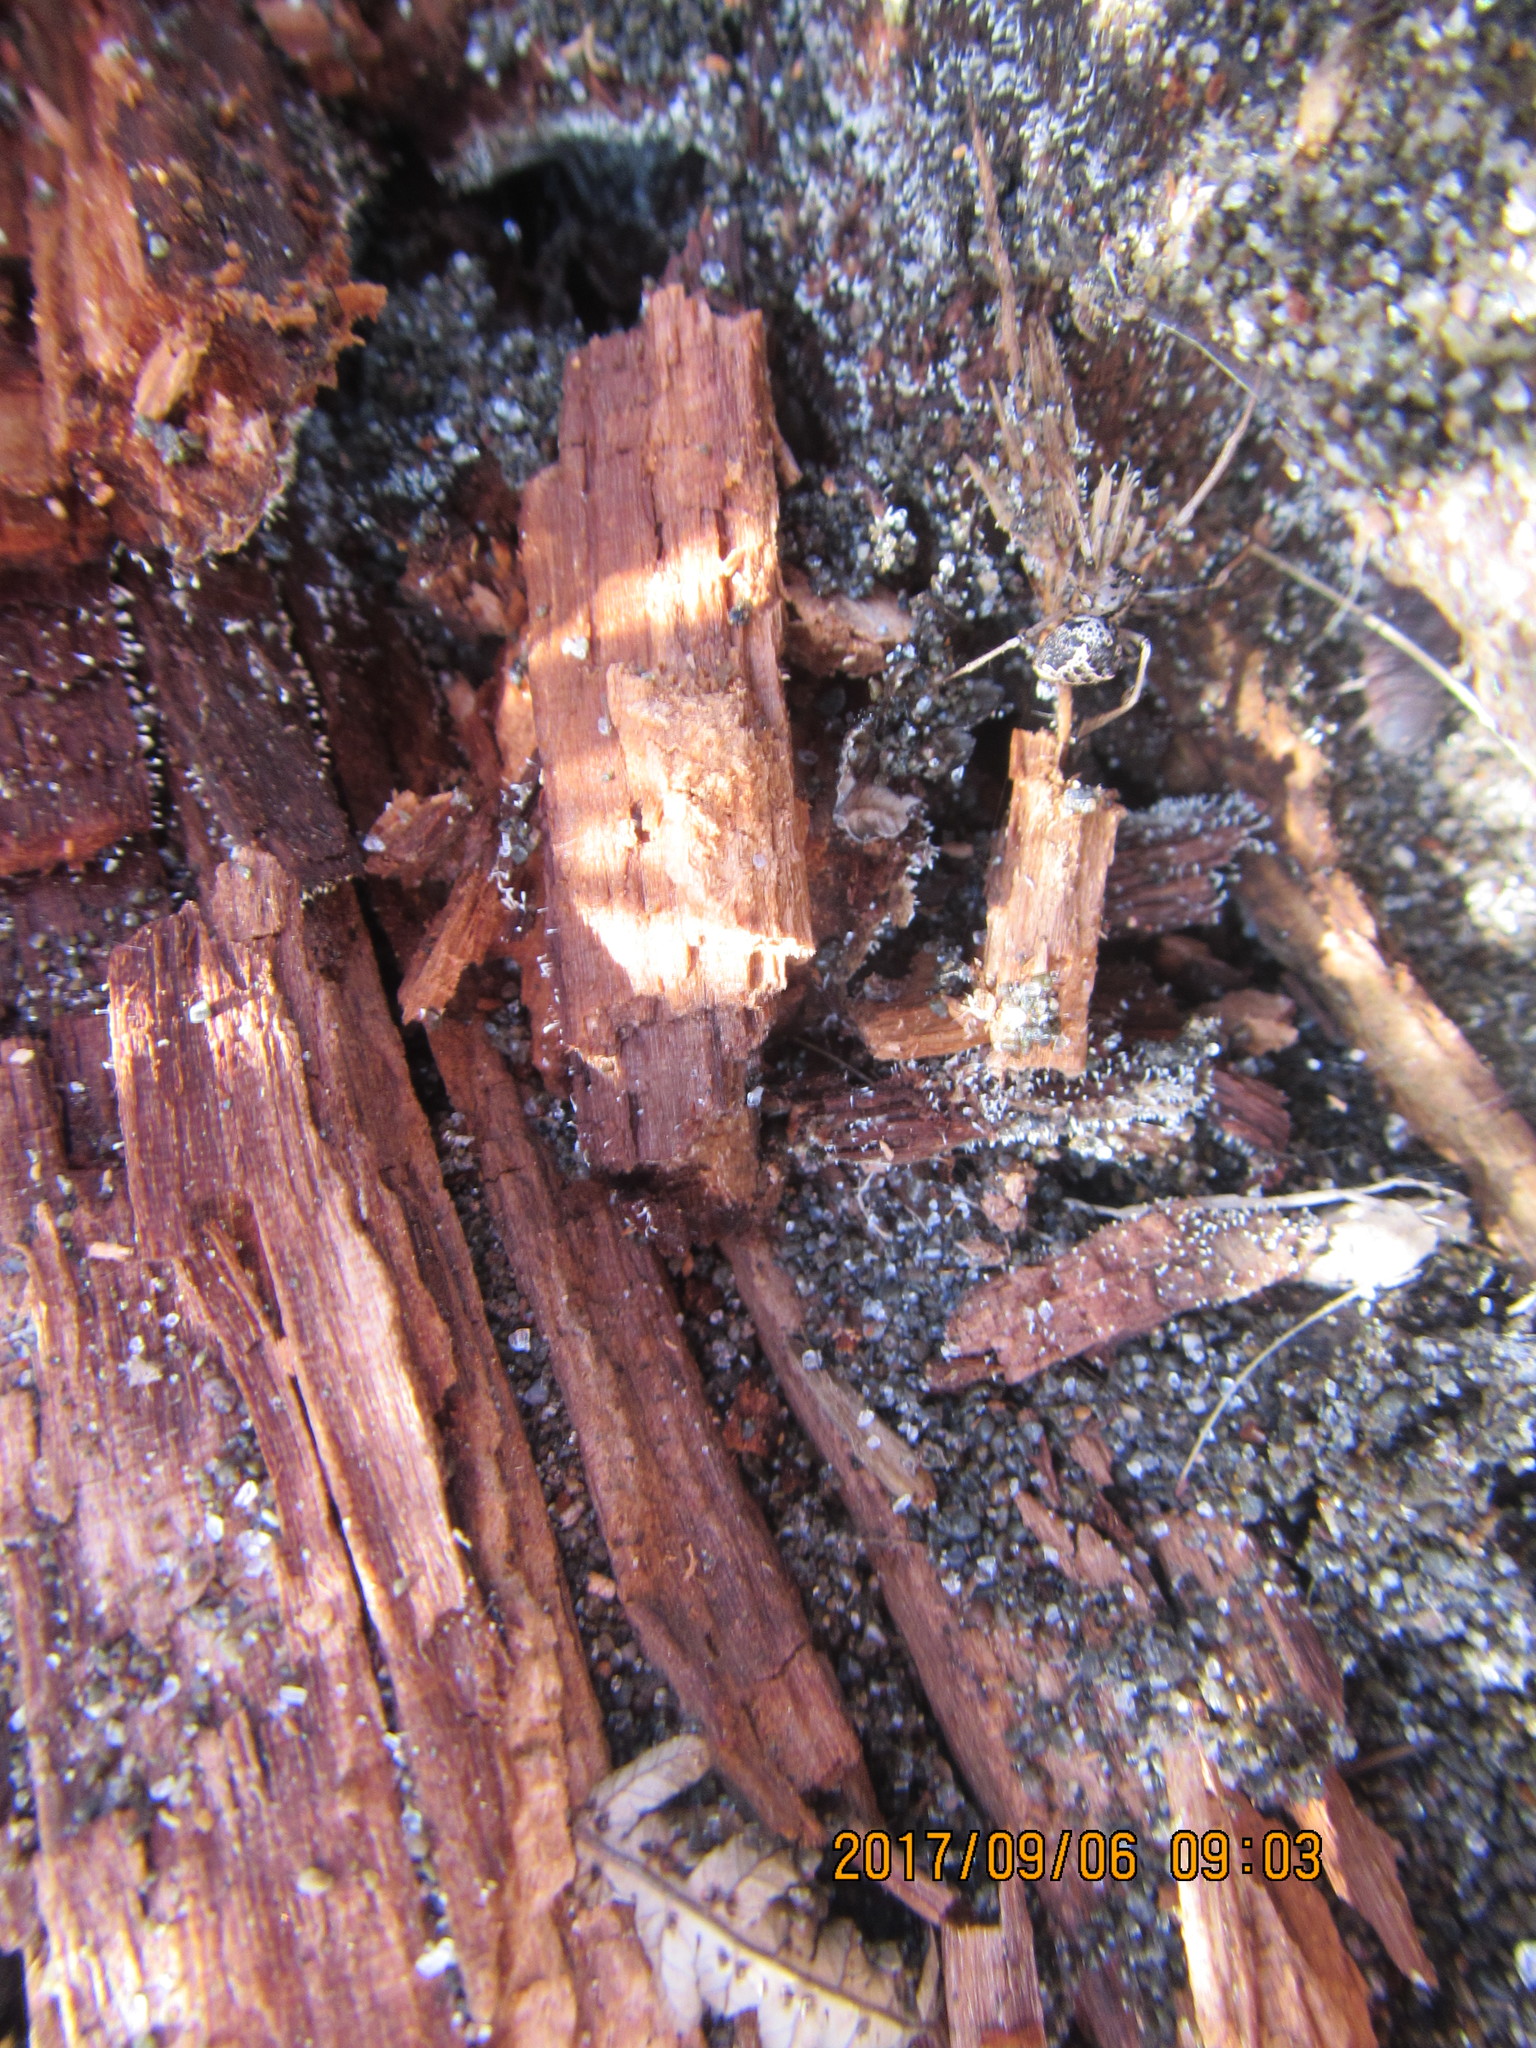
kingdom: Animalia
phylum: Arthropoda
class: Arachnida
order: Araneae
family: Mimetidae
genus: Australomimetus
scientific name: Australomimetus hartleyensis
